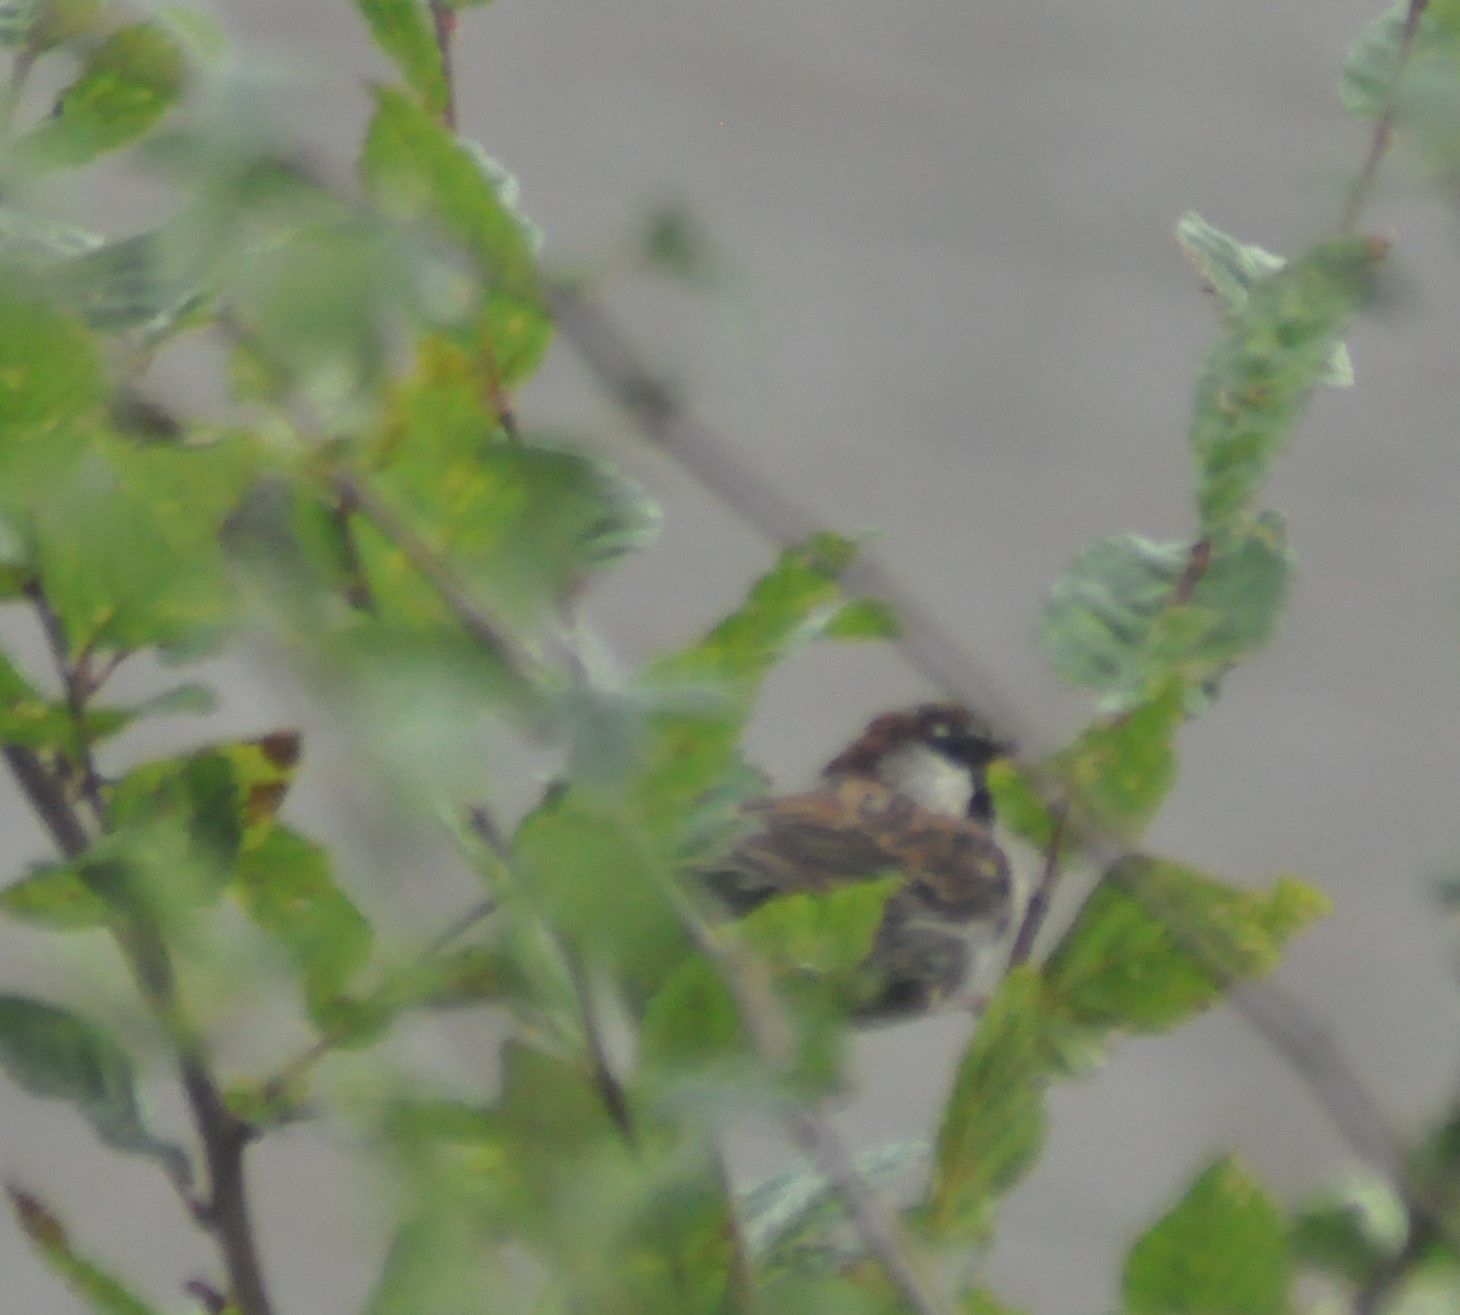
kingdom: Animalia
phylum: Chordata
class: Aves
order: Passeriformes
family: Passeridae
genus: Passer
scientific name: Passer domesticus
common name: House sparrow
